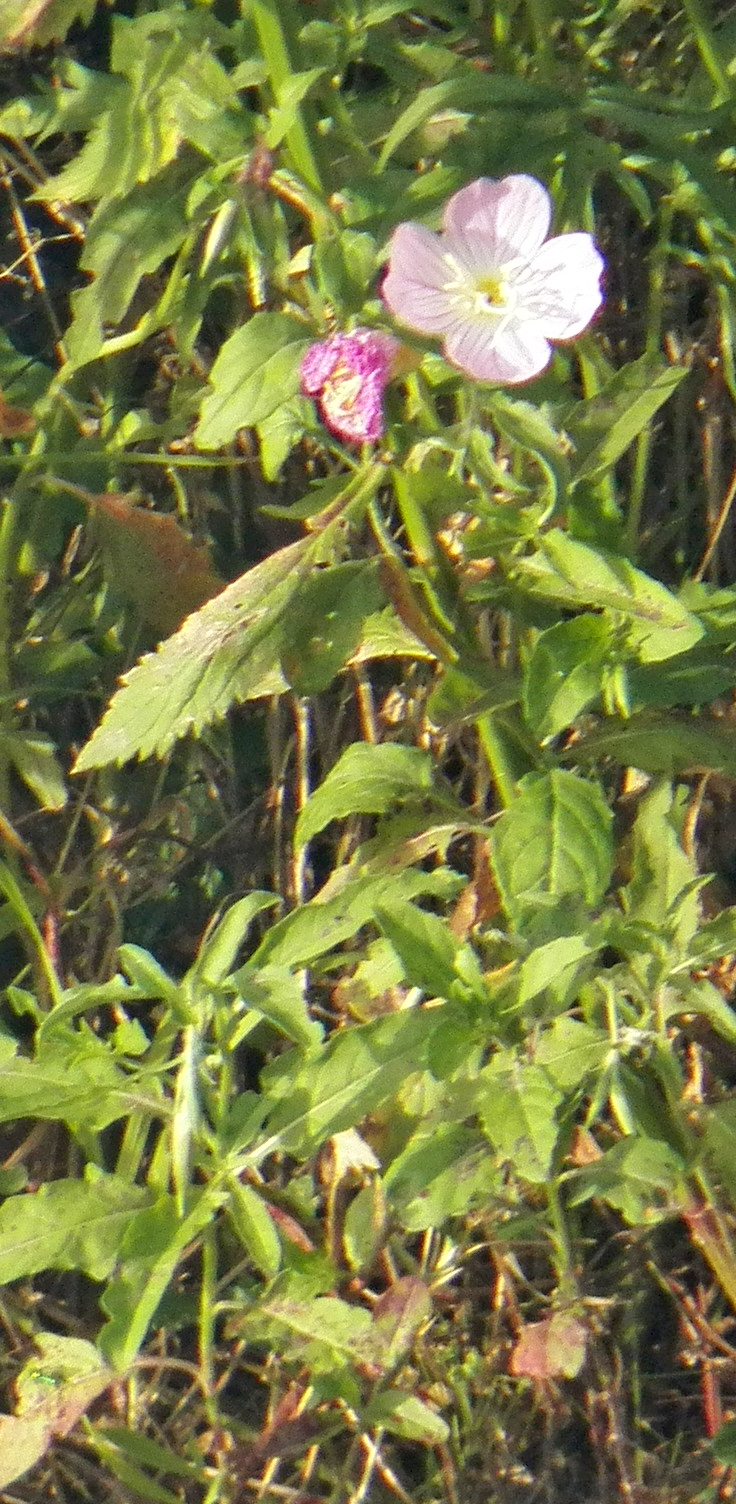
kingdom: Plantae
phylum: Tracheophyta
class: Magnoliopsida
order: Myrtales
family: Onagraceae
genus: Oenothera
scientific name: Oenothera speciosa
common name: White evening-primrose
